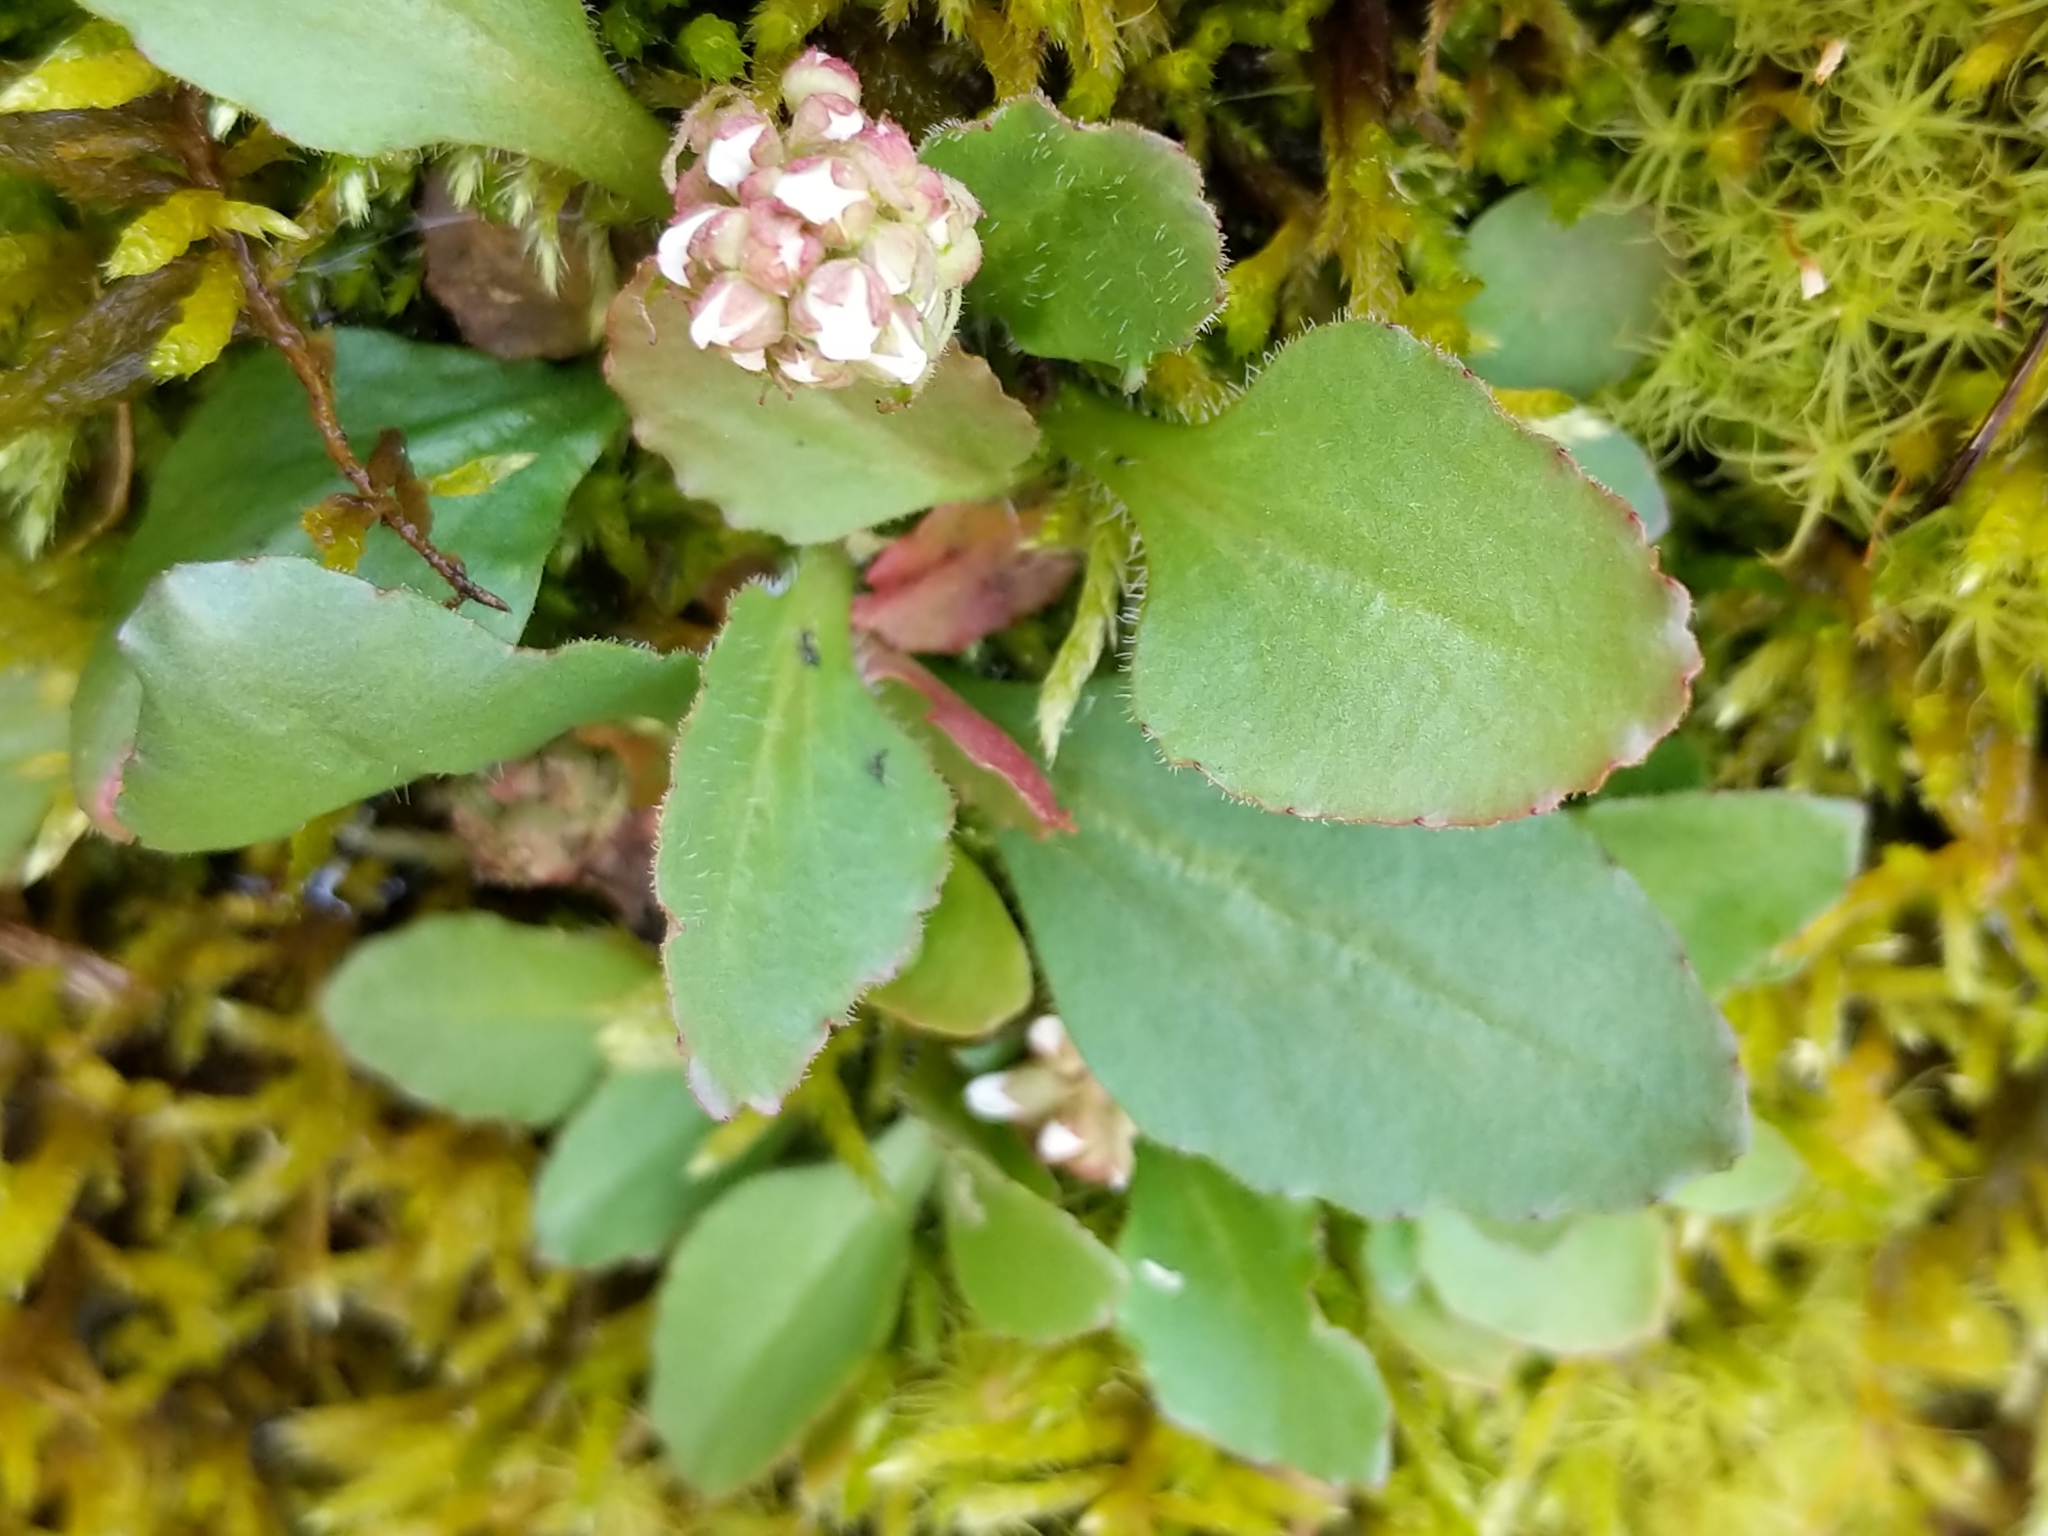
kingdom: Plantae
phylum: Tracheophyta
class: Magnoliopsida
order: Saxifragales
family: Saxifragaceae
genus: Micranthes
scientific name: Micranthes virginiensis
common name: Early saxifrage
